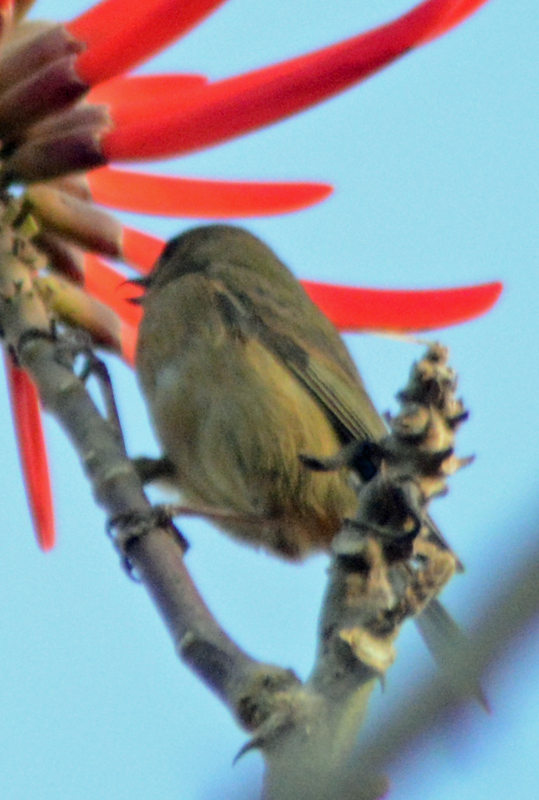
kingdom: Animalia
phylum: Chordata
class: Aves
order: Passeriformes
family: Thraupidae
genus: Diglossa
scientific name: Diglossa baritula
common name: Cinnamon-bellied flowerpiercer
